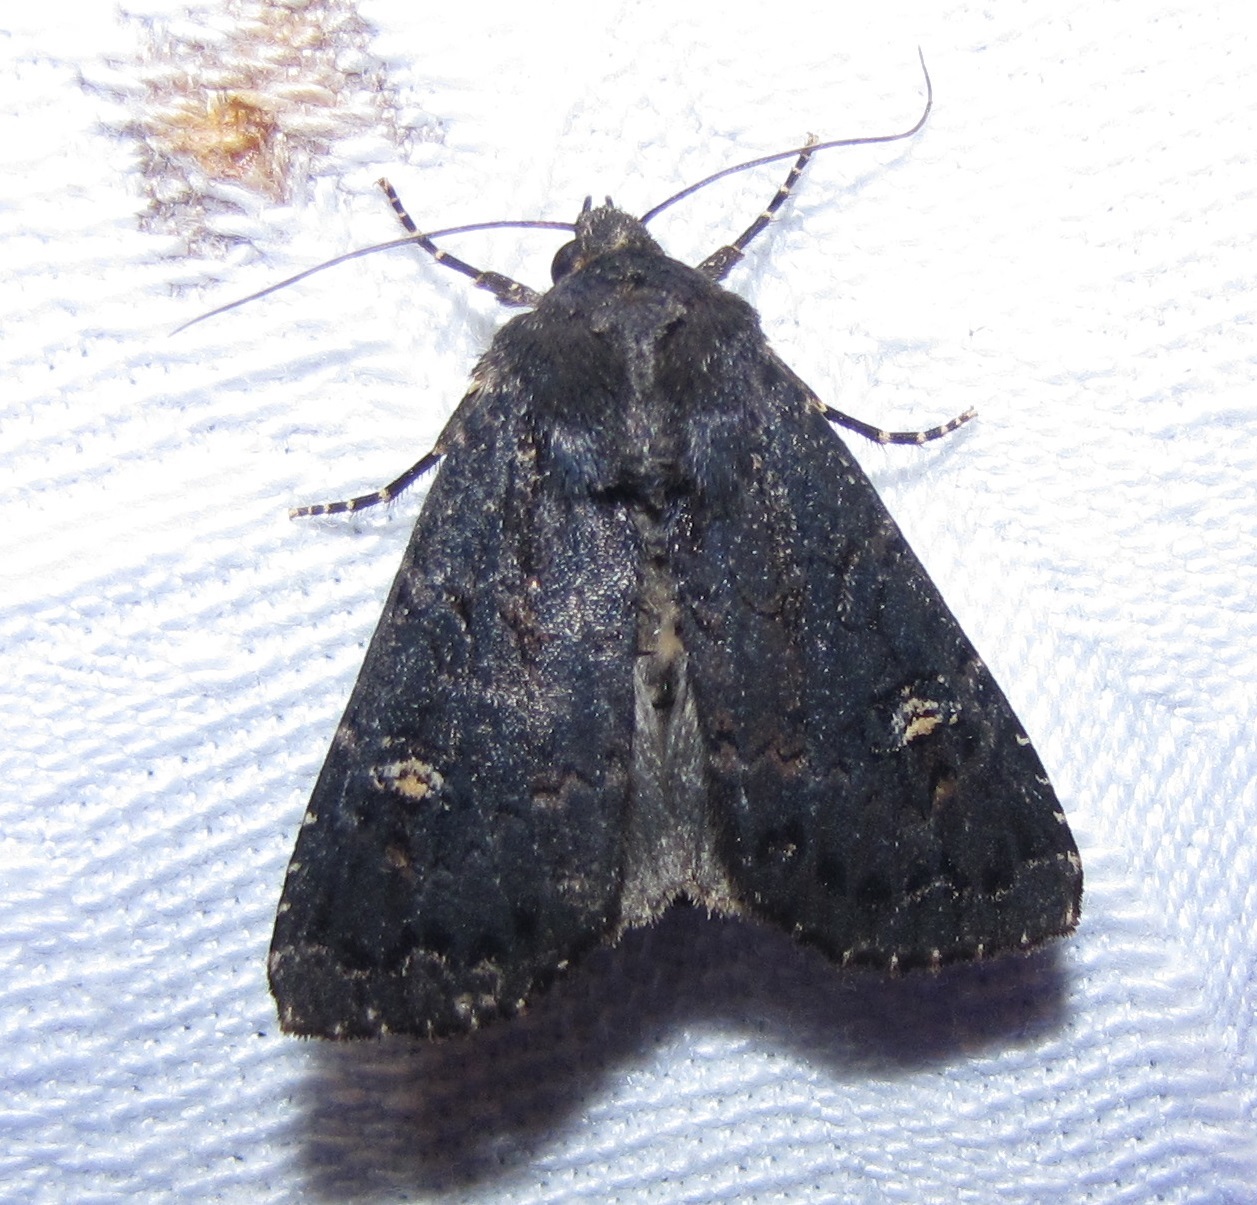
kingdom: Animalia
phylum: Arthropoda
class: Insecta
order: Lepidoptera
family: Noctuidae
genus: Apamea
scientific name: Apamea dubitans
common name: Doubtful apamea moth
